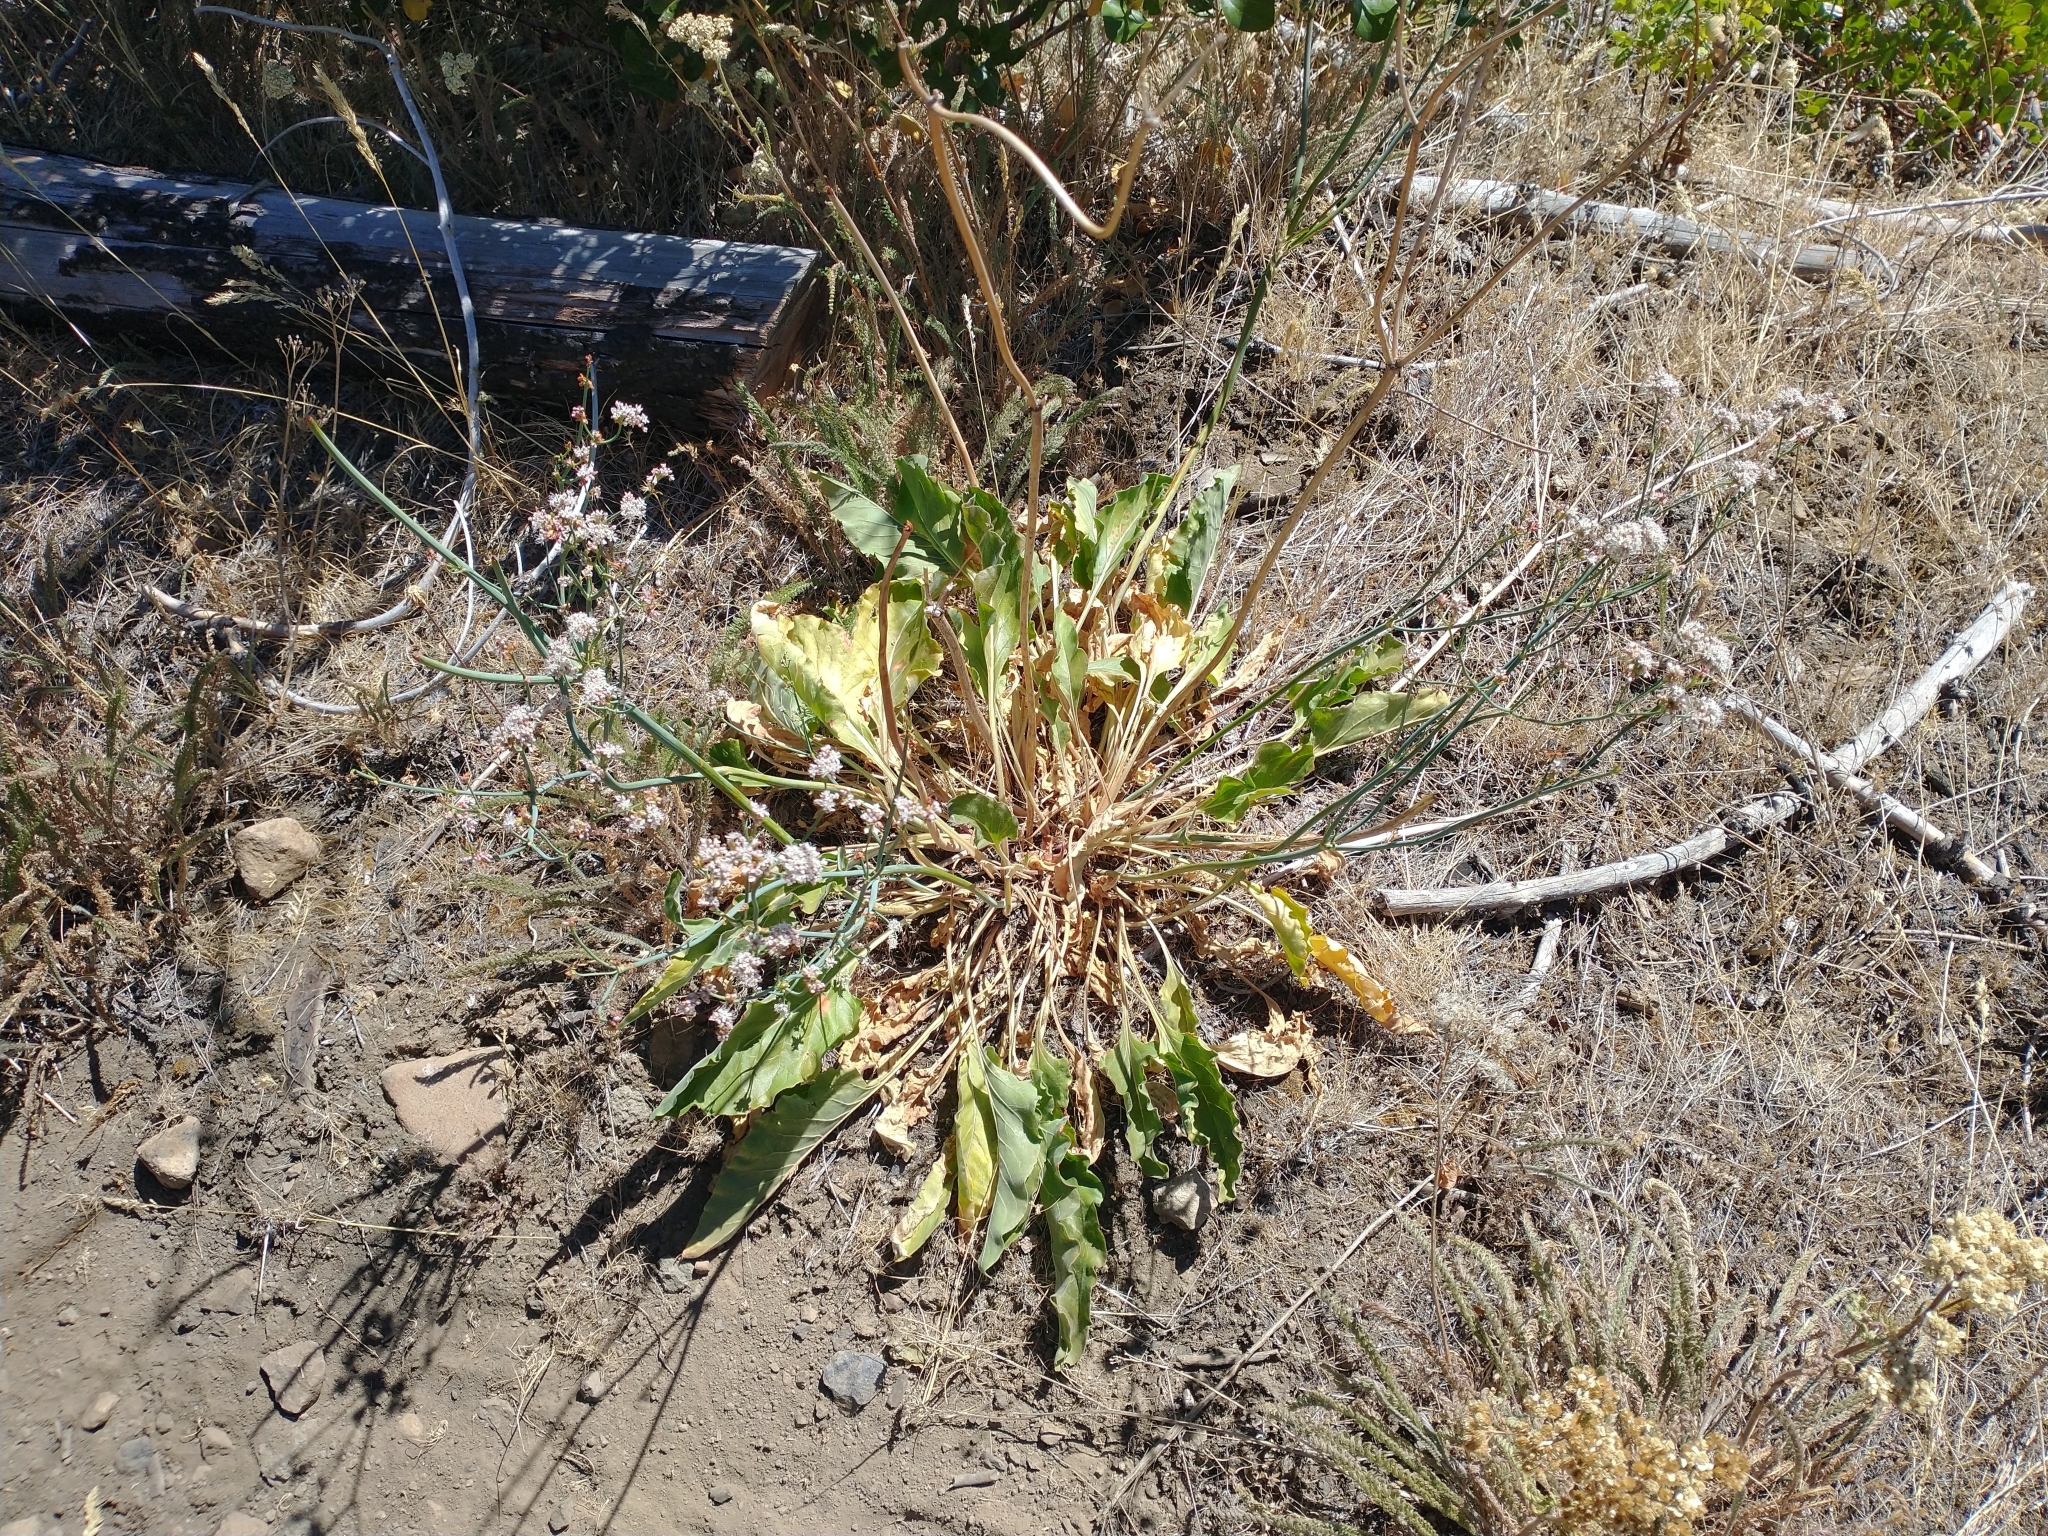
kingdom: Plantae
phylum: Tracheophyta
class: Magnoliopsida
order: Caryophyllales
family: Polygonaceae
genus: Eriogonum
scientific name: Eriogonum elatum
